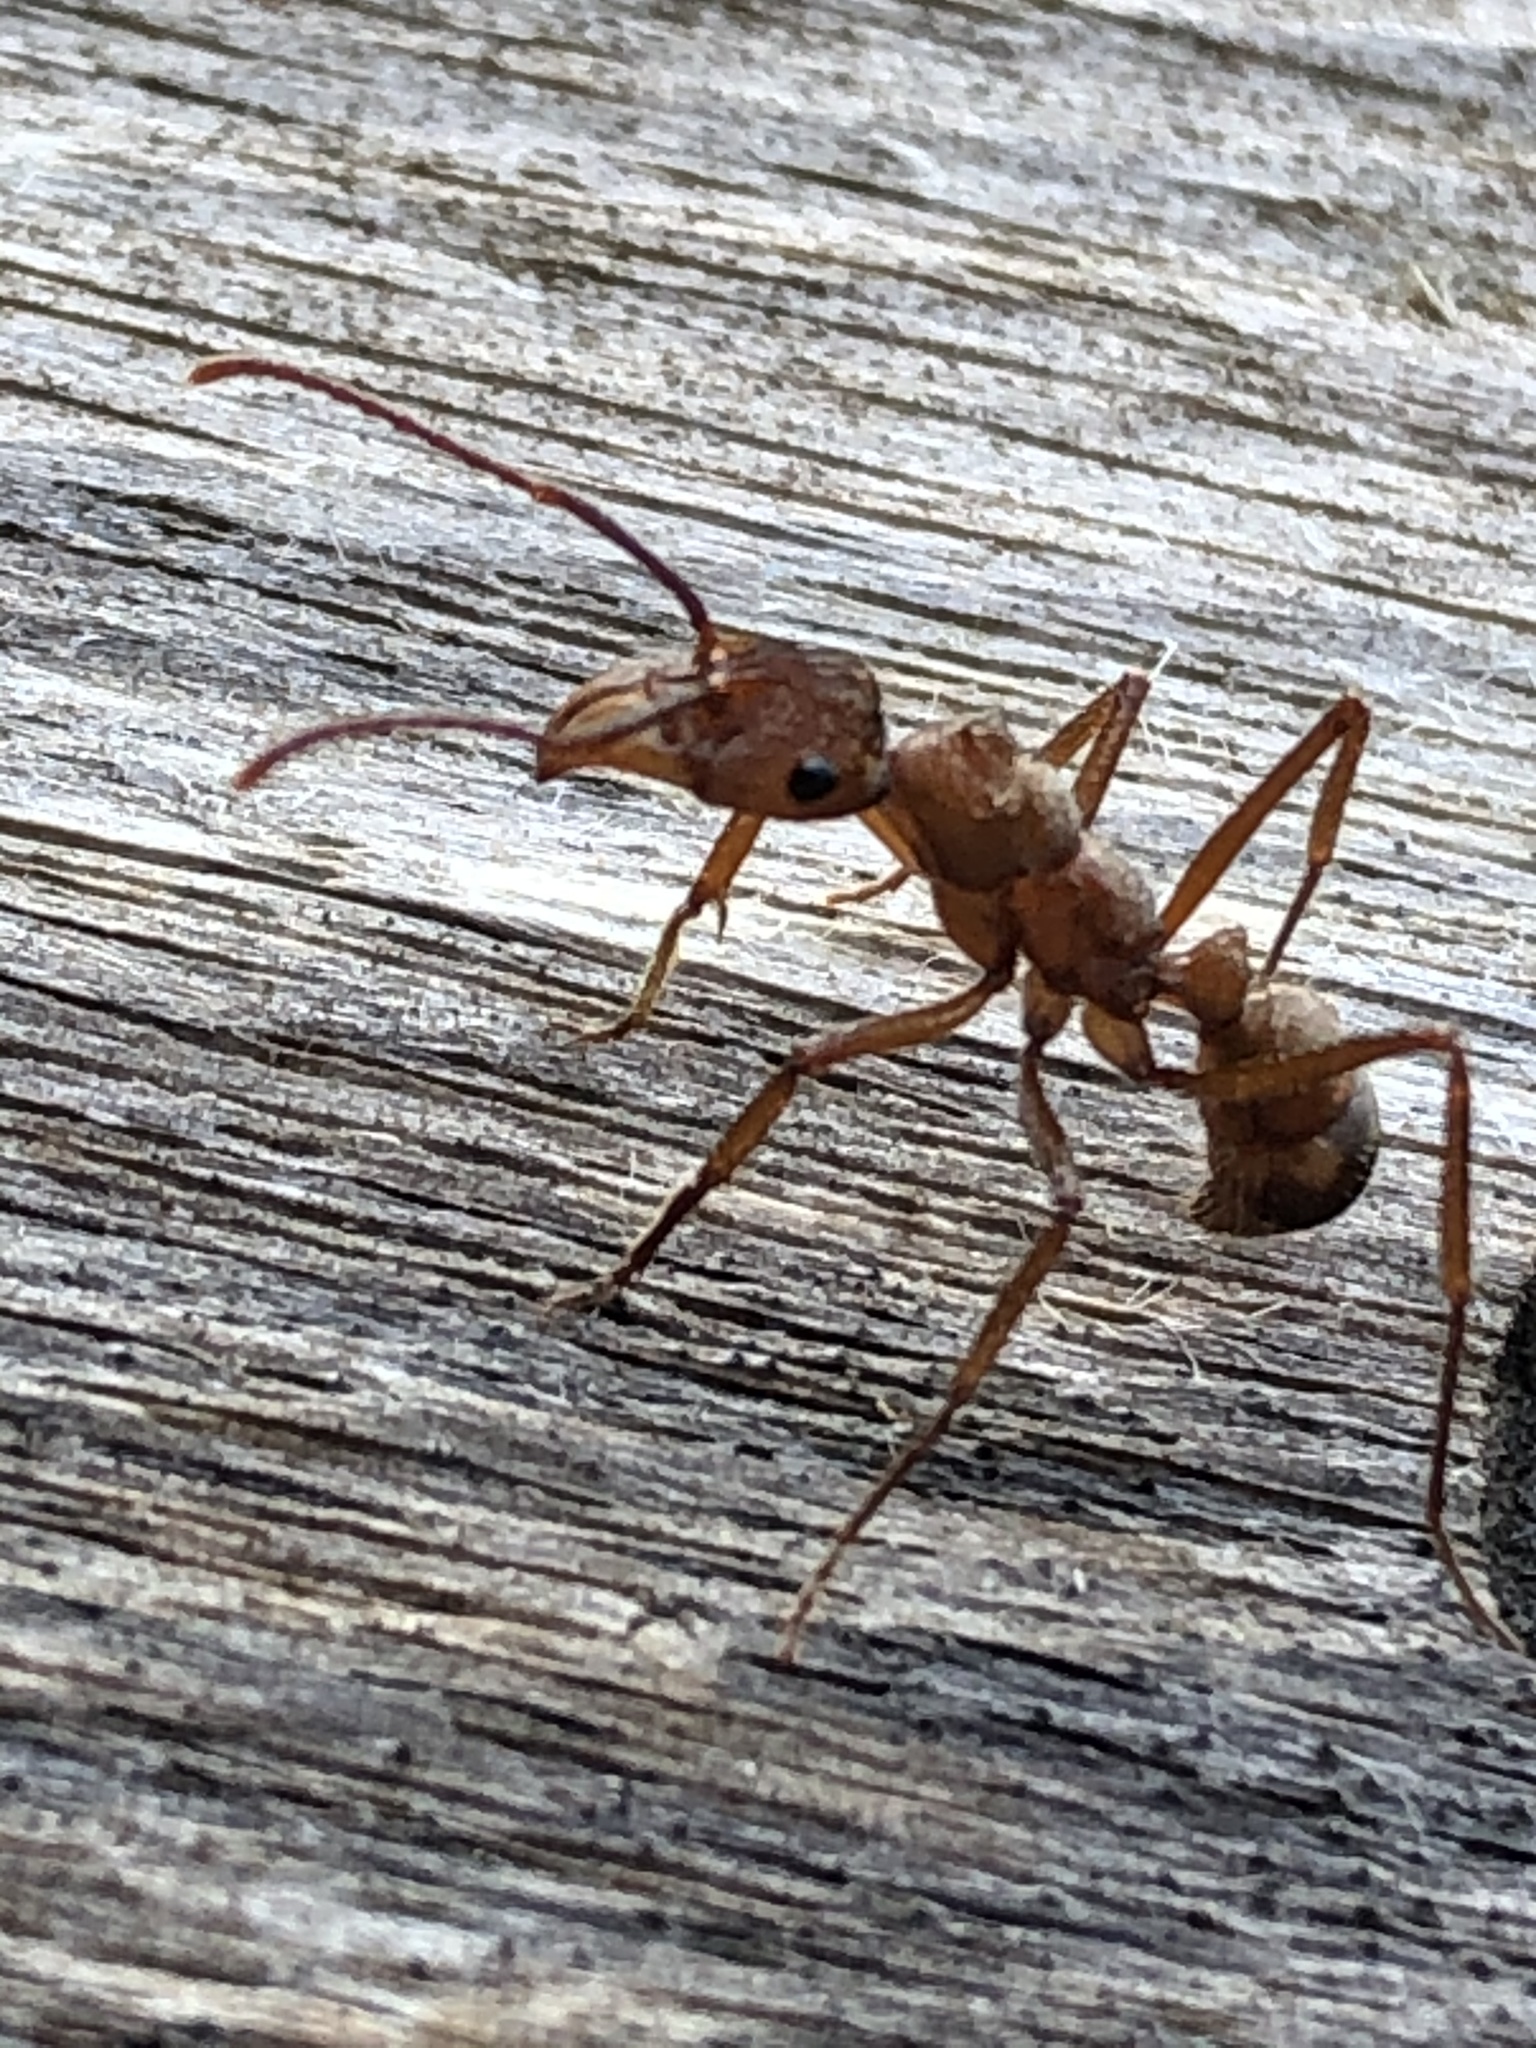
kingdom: Animalia
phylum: Arthropoda
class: Insecta
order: Hymenoptera
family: Formicidae
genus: Ectatomma
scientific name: Ectatomma tuberculatum
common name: Ant
